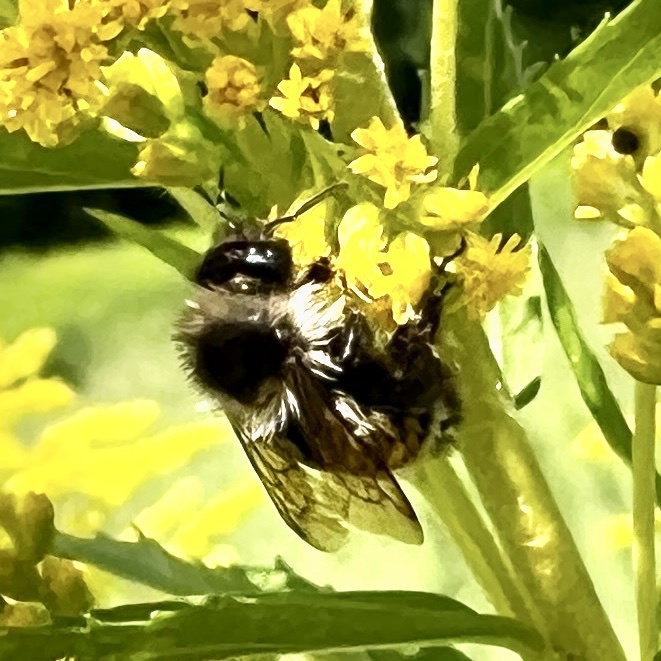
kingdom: Animalia
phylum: Arthropoda
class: Insecta
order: Hymenoptera
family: Apidae
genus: Bombus
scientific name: Bombus ternarius
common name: Tri-colored bumble bee
